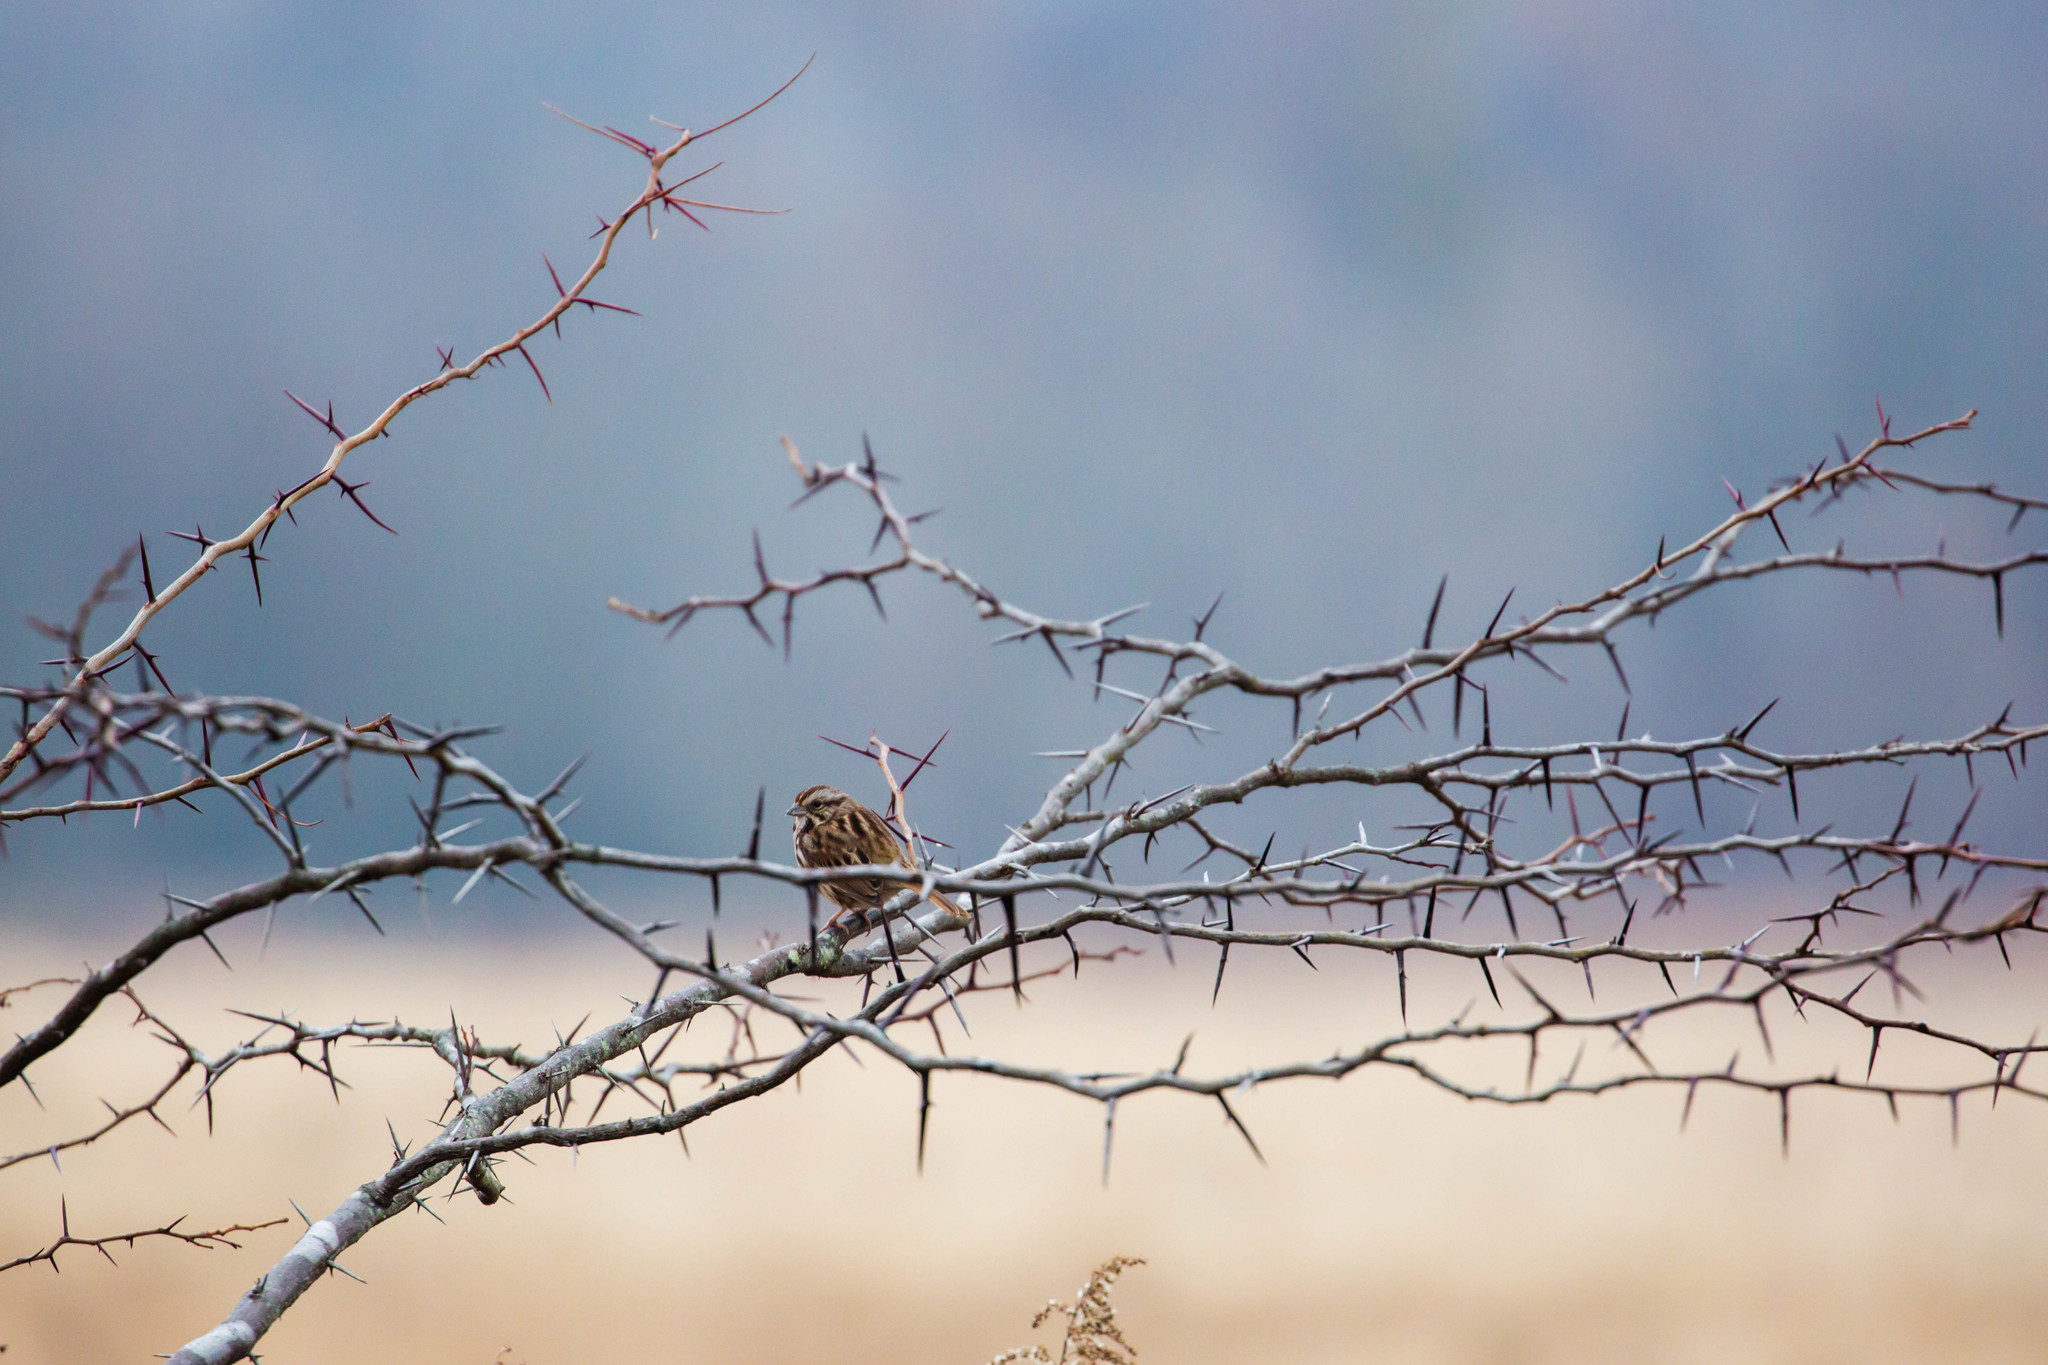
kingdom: Animalia
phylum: Chordata
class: Aves
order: Passeriformes
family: Passerellidae
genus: Melospiza
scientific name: Melospiza melodia
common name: Song sparrow
